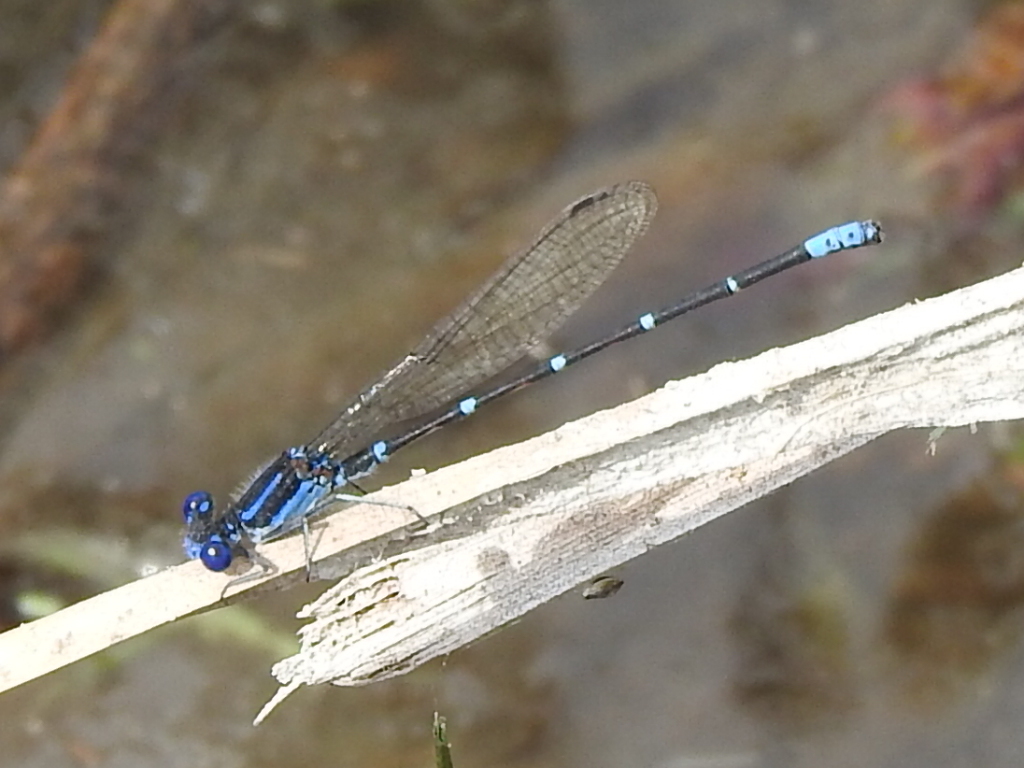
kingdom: Animalia
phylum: Arthropoda
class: Insecta
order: Odonata
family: Coenagrionidae
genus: Argia
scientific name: Argia sedula
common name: Blue-ringed dancer
